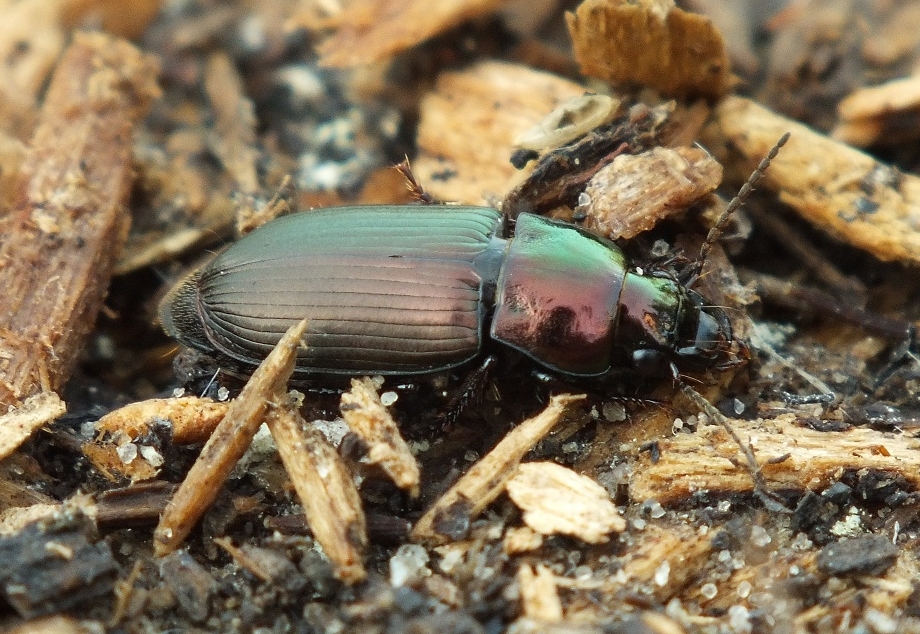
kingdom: Animalia
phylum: Arthropoda
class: Insecta
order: Coleoptera
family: Carabidae
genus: Harpalus
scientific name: Harpalus distinguendus
